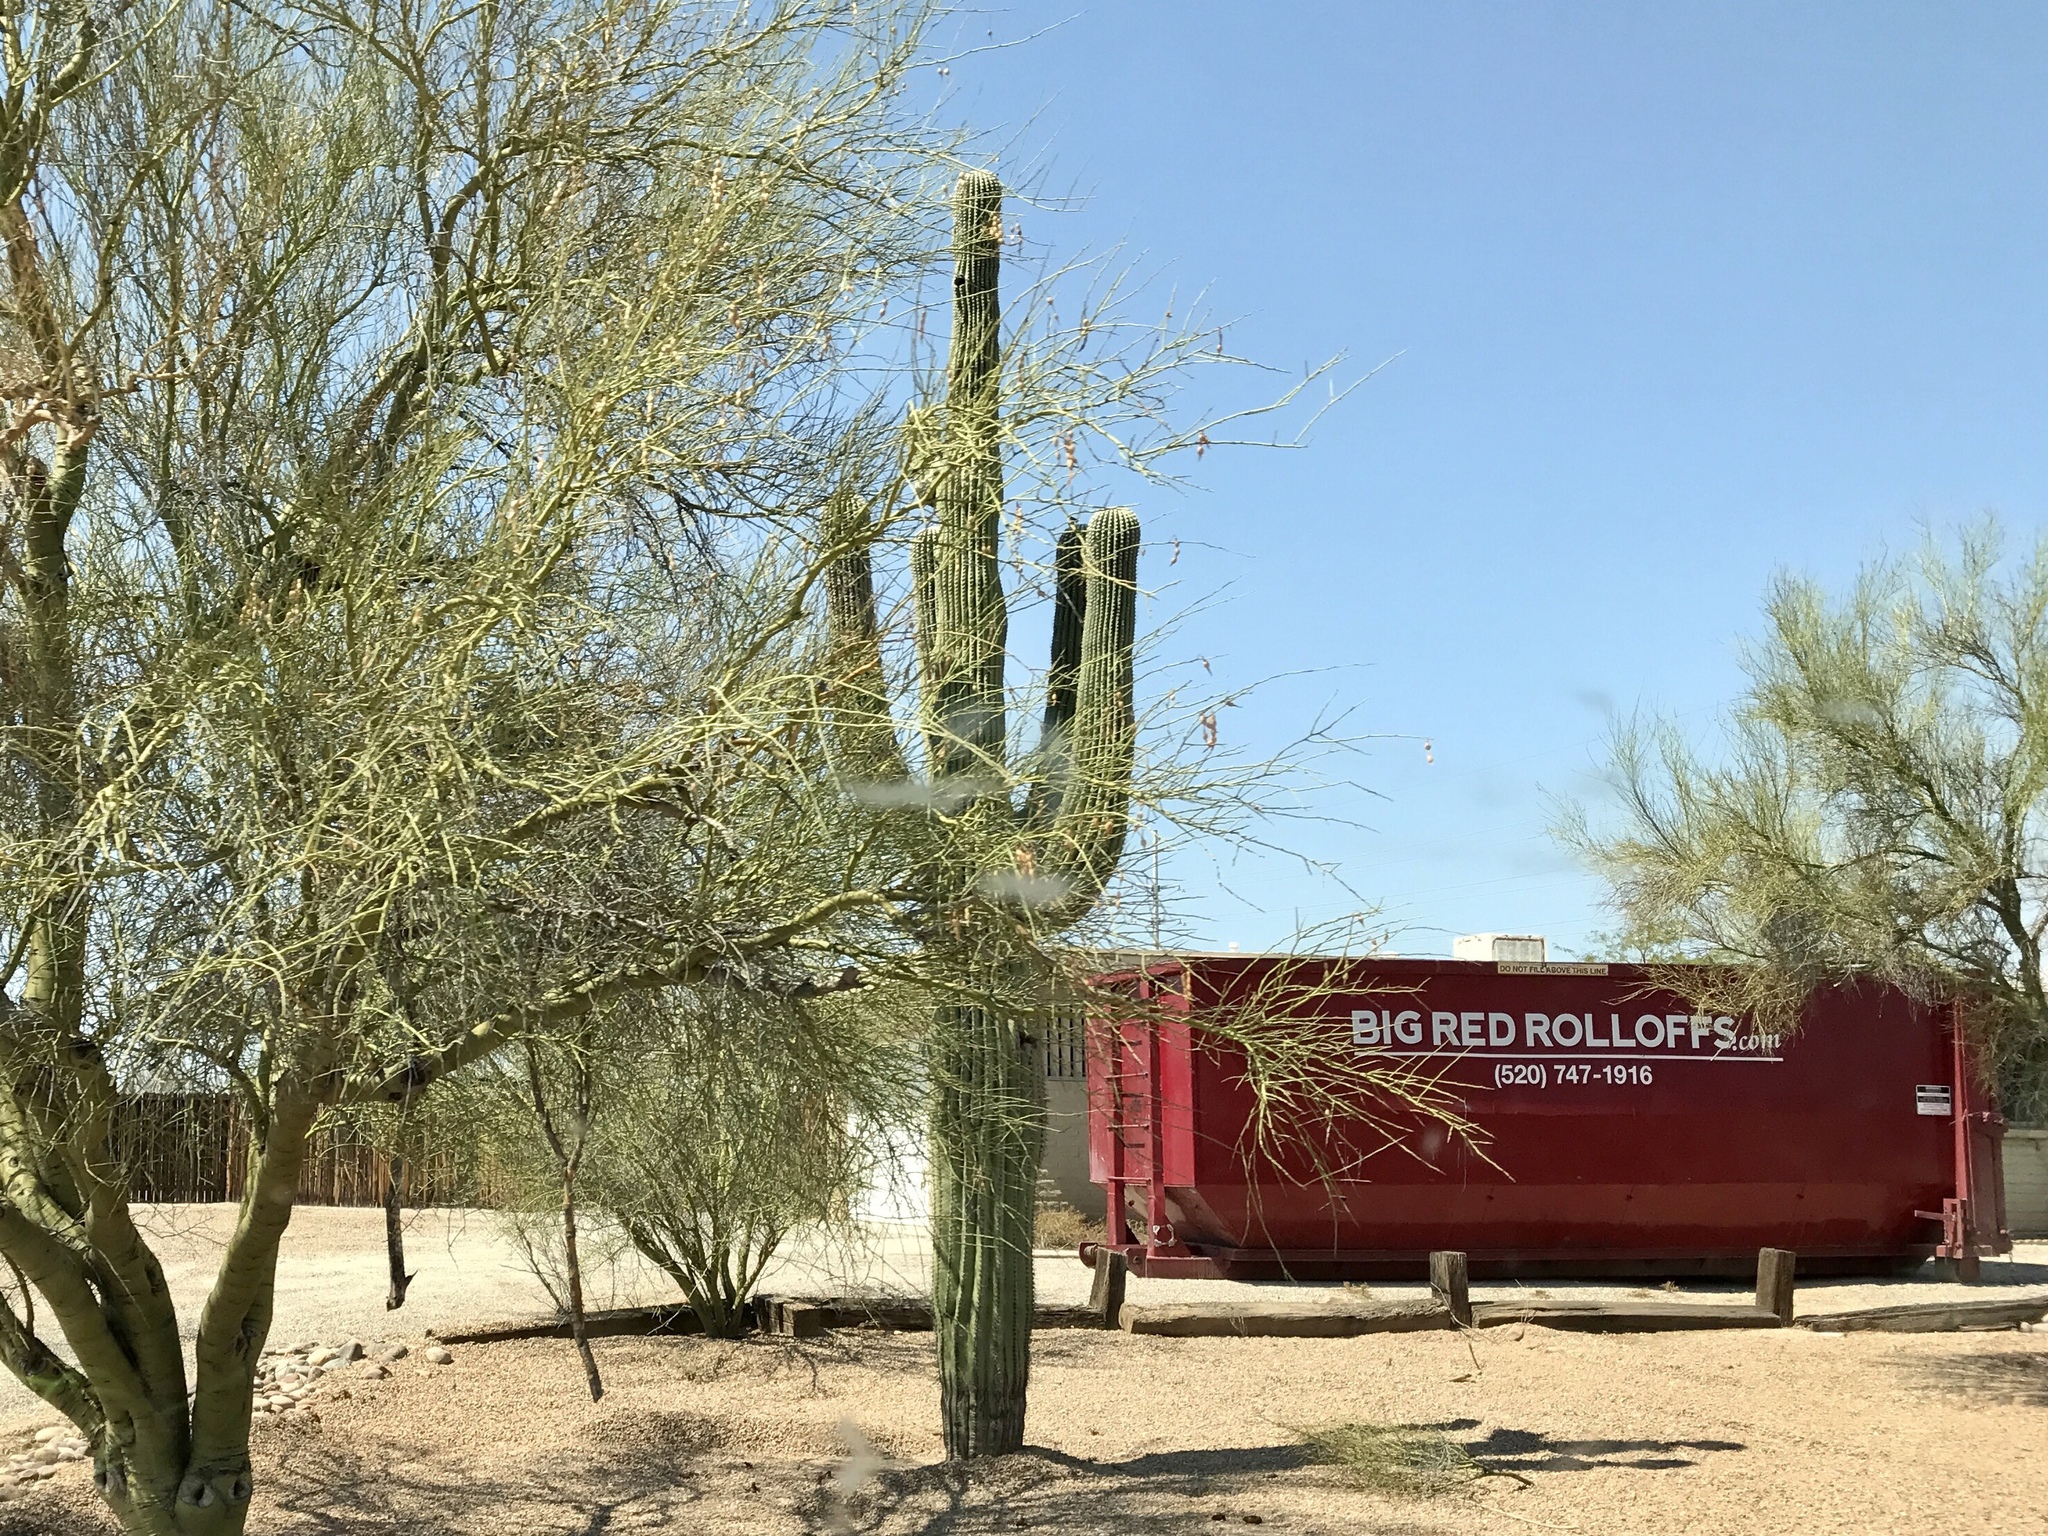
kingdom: Plantae
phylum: Tracheophyta
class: Magnoliopsida
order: Caryophyllales
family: Cactaceae
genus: Carnegiea
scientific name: Carnegiea gigantea
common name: Saguaro
